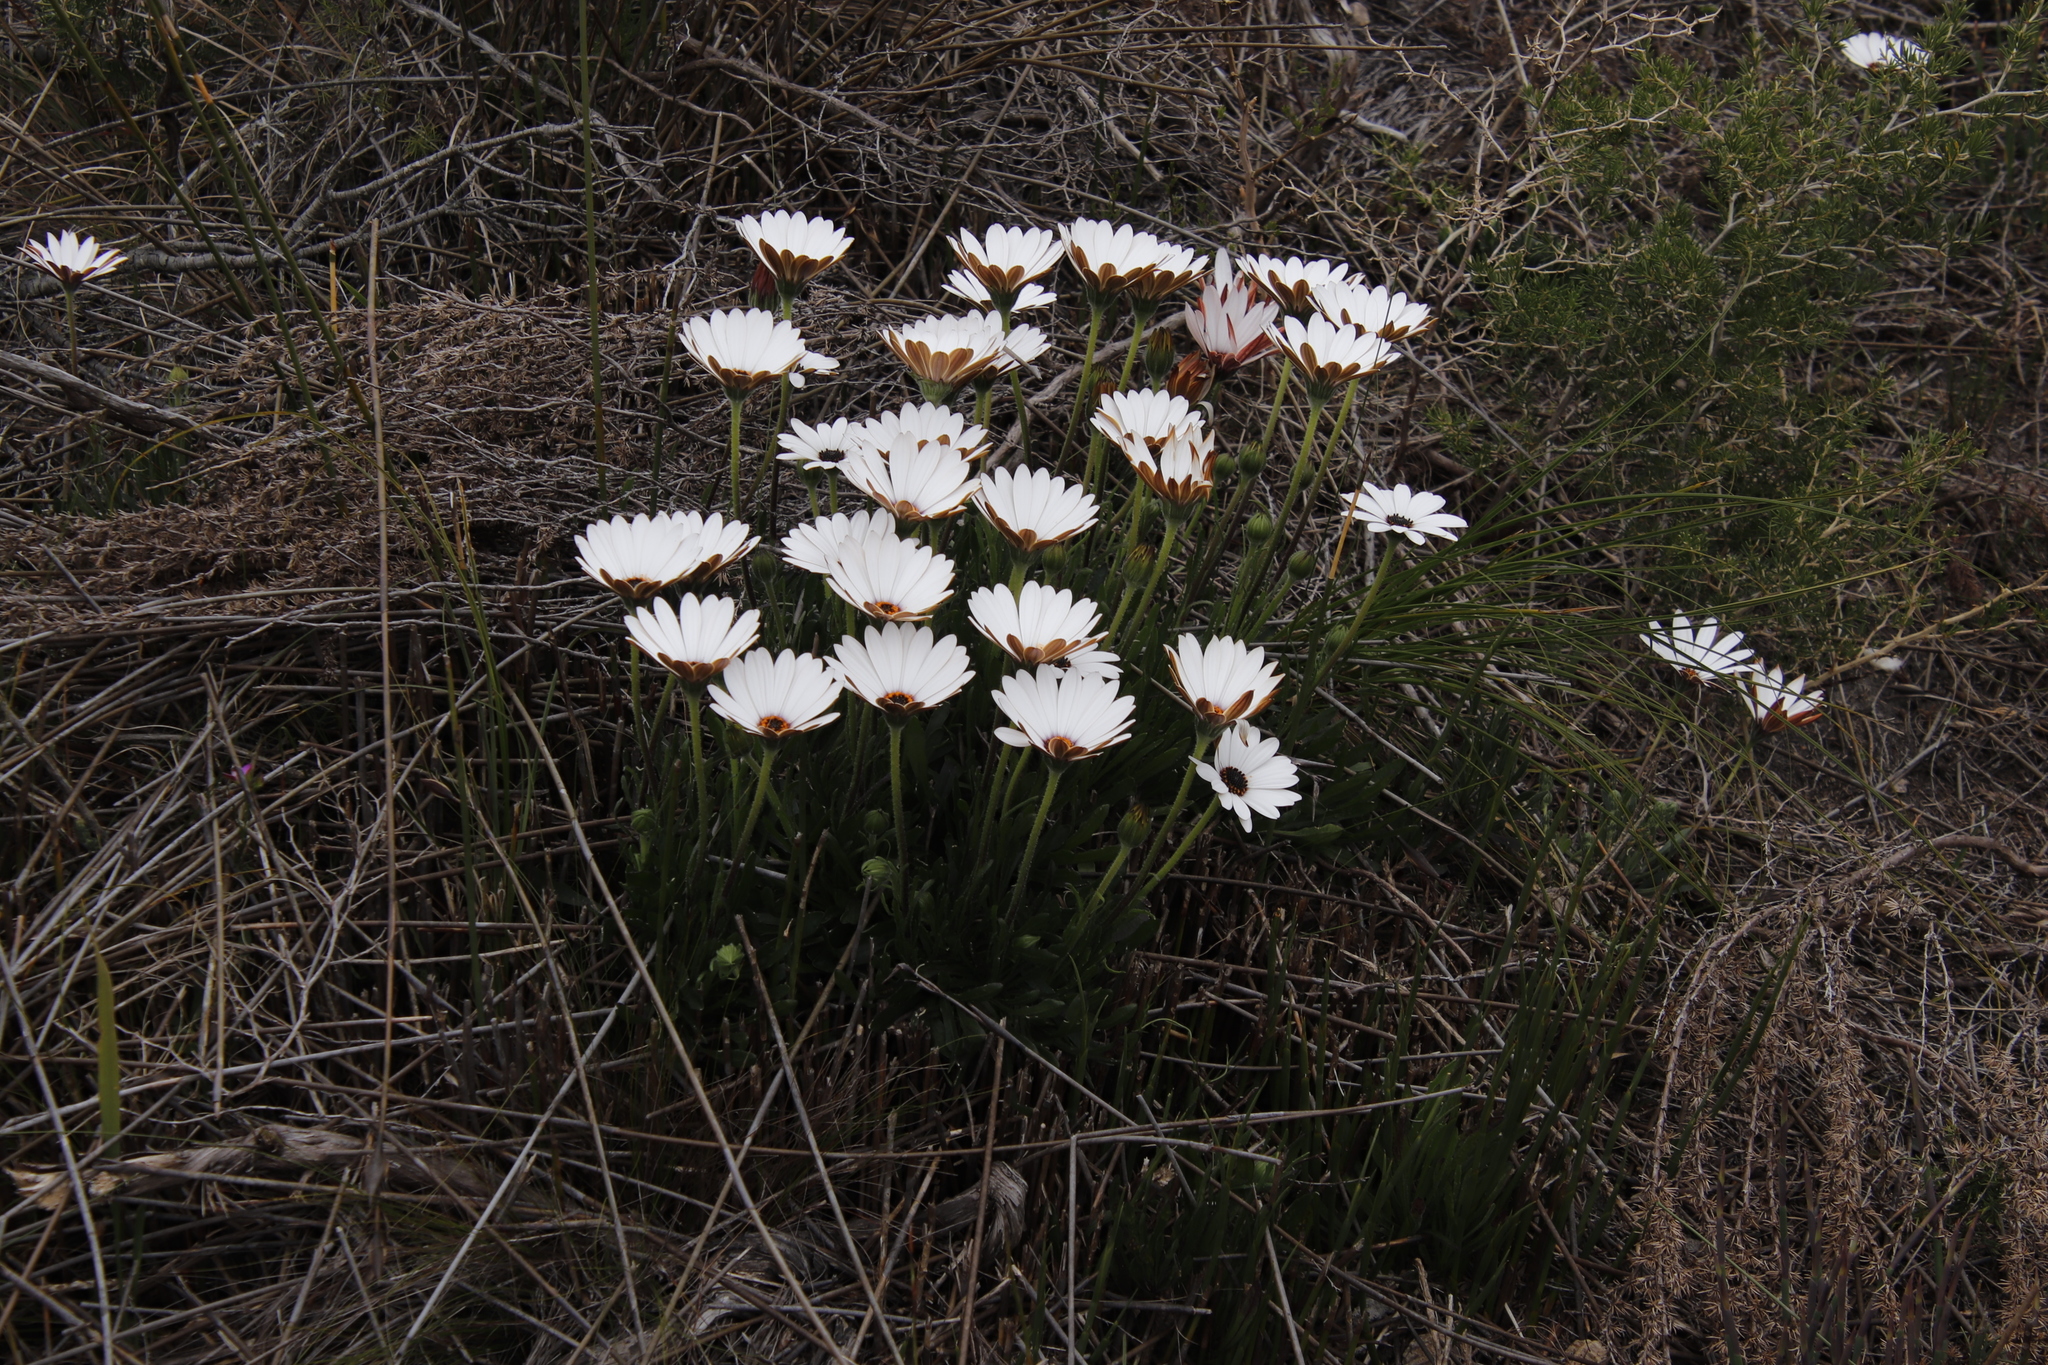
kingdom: Plantae
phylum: Tracheophyta
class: Magnoliopsida
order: Asterales
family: Asteraceae
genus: Dimorphotheca
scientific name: Dimorphotheca nudicaulis
